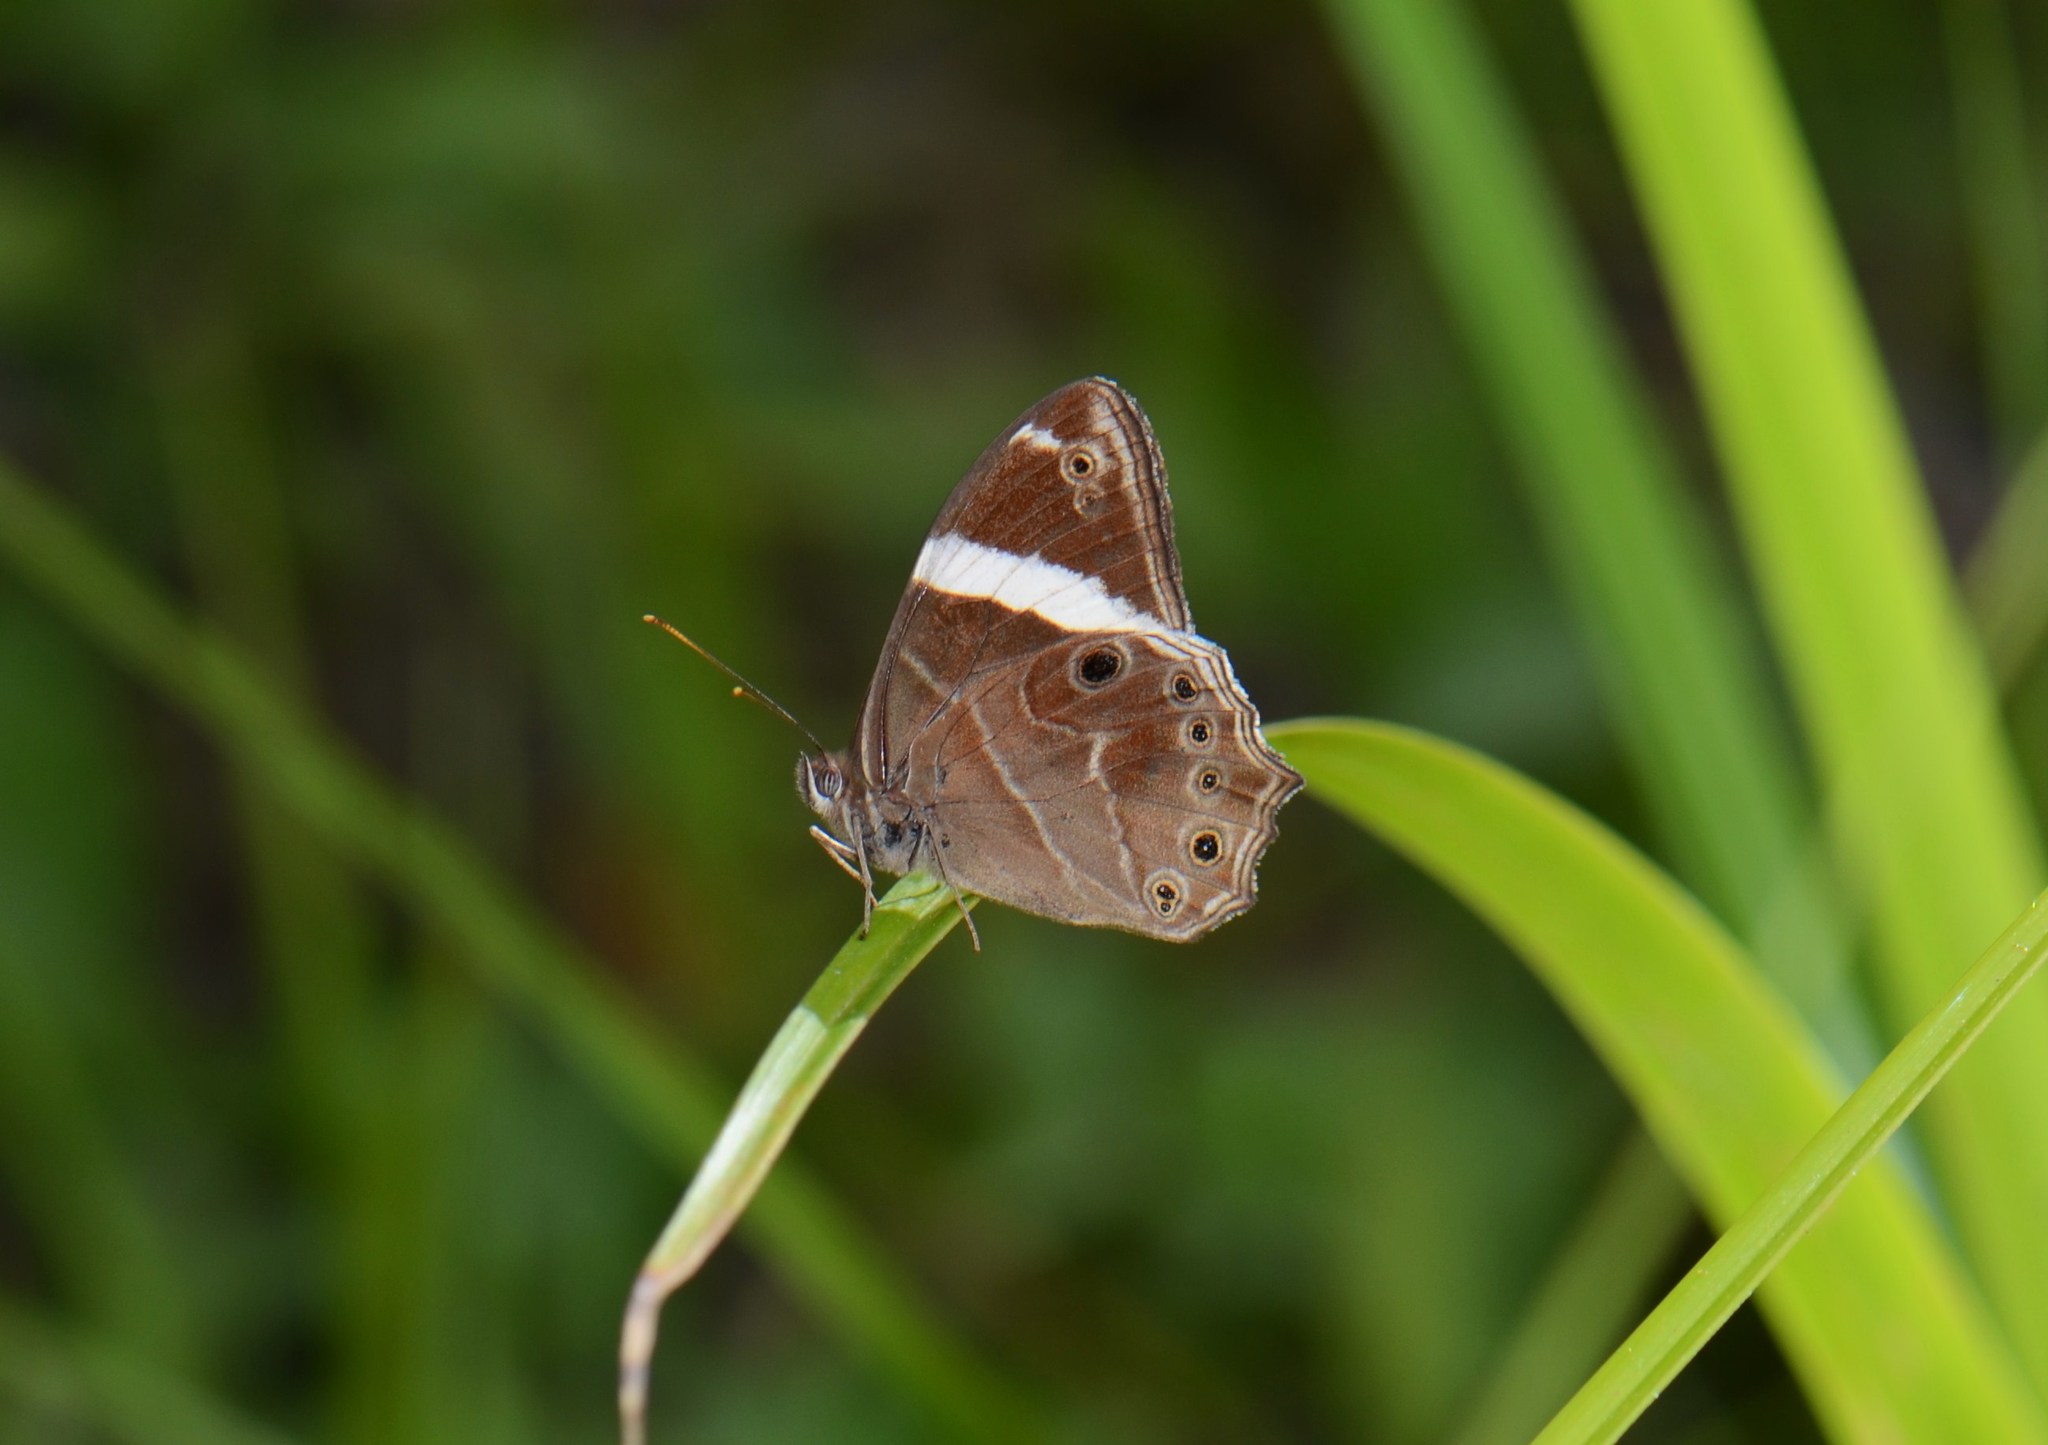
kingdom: Animalia
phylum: Arthropoda
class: Insecta
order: Lepidoptera
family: Nymphalidae
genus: Lethe
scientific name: Lethe confusa
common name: Banded treebrown
